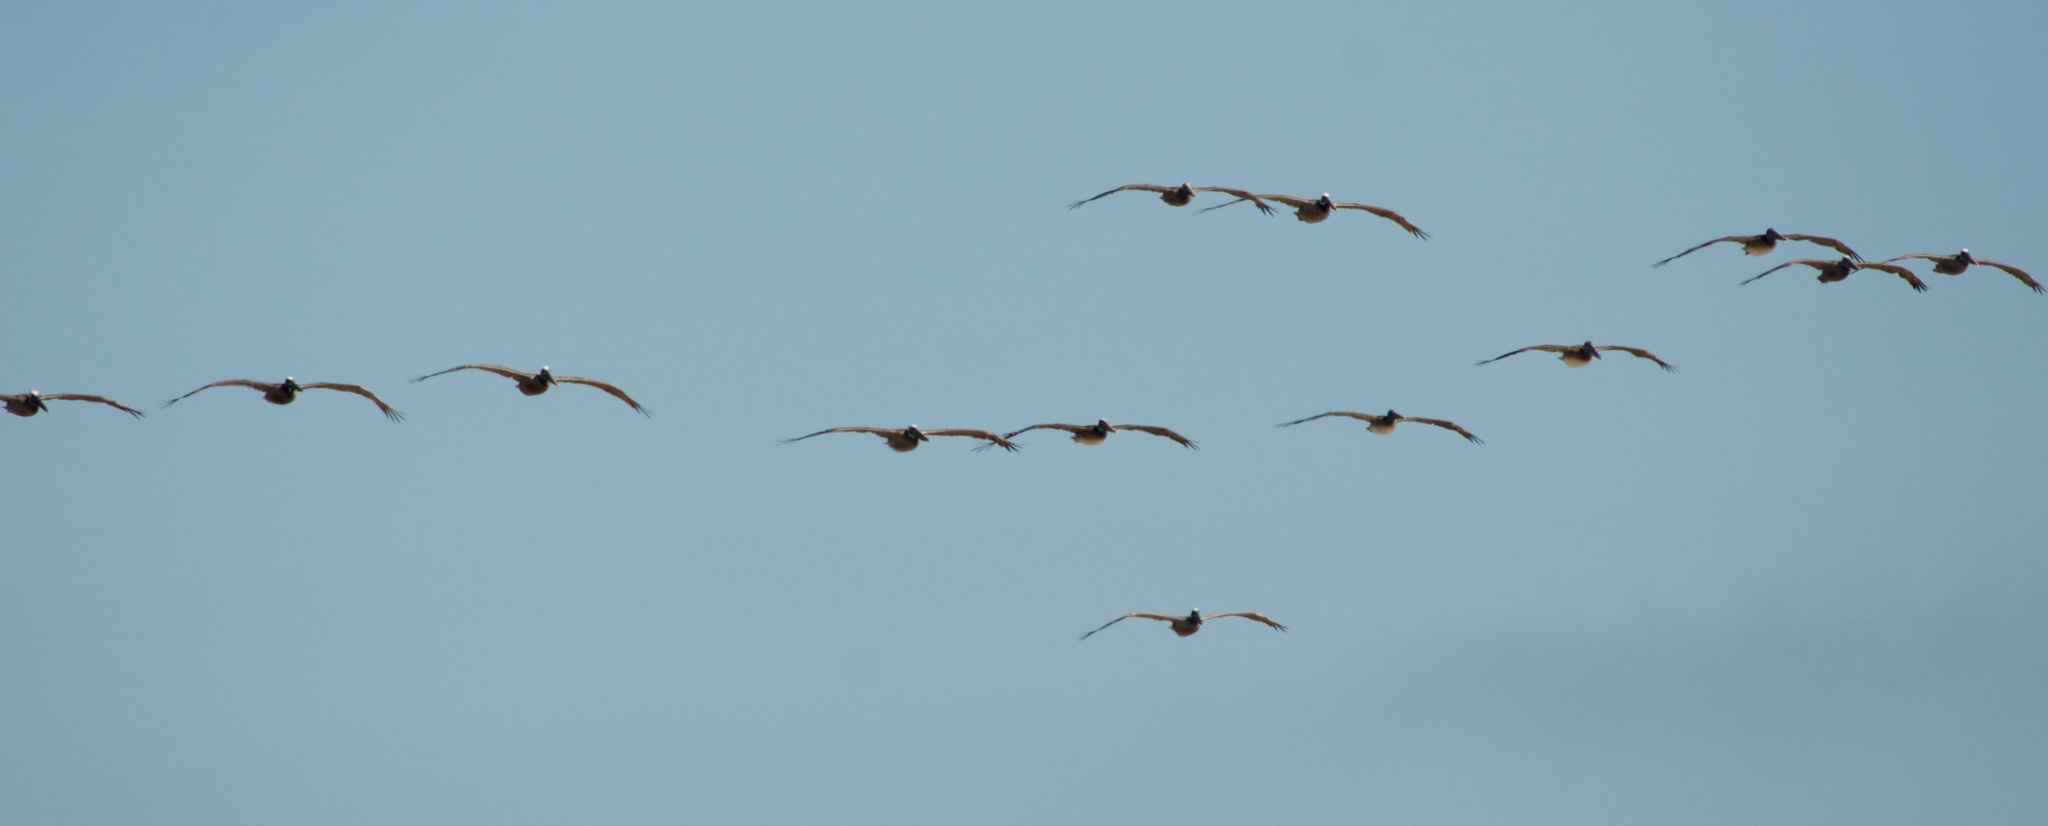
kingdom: Animalia
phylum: Chordata
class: Aves
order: Pelecaniformes
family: Pelecanidae
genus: Pelecanus
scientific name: Pelecanus occidentalis
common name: Brown pelican
